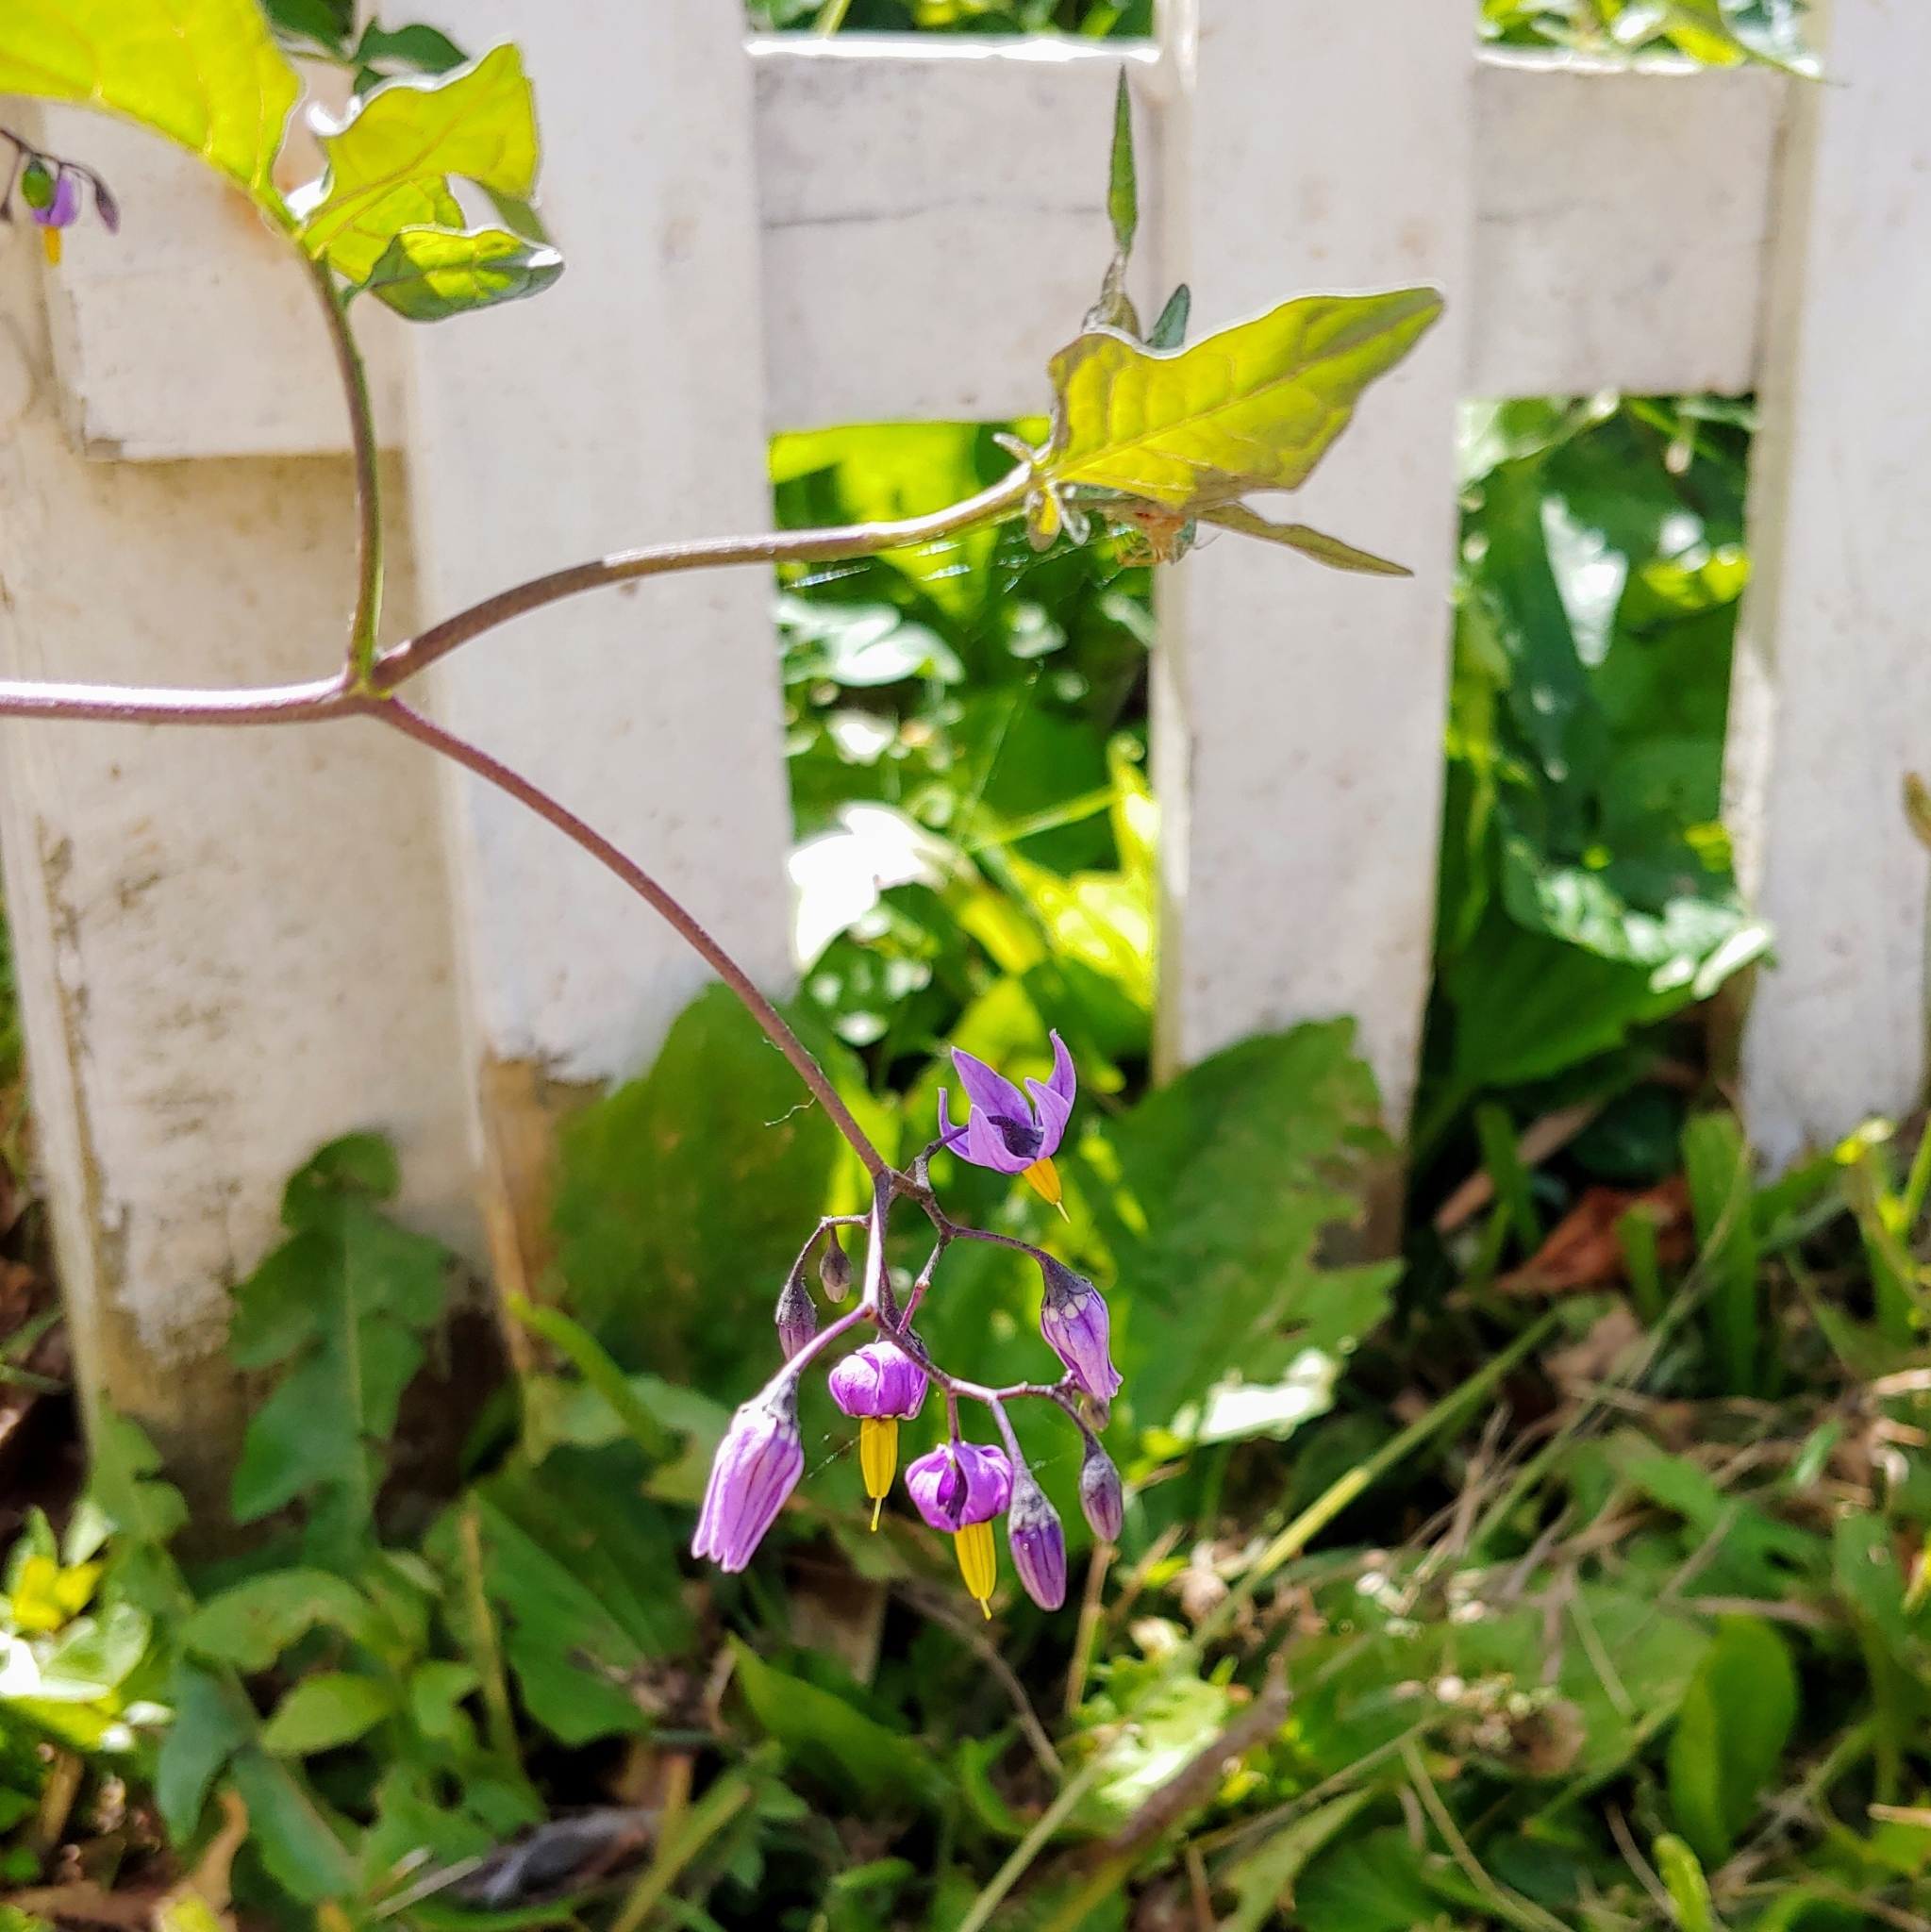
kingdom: Plantae
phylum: Tracheophyta
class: Magnoliopsida
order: Solanales
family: Solanaceae
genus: Solanum
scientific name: Solanum dulcamara
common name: Climbing nightshade
